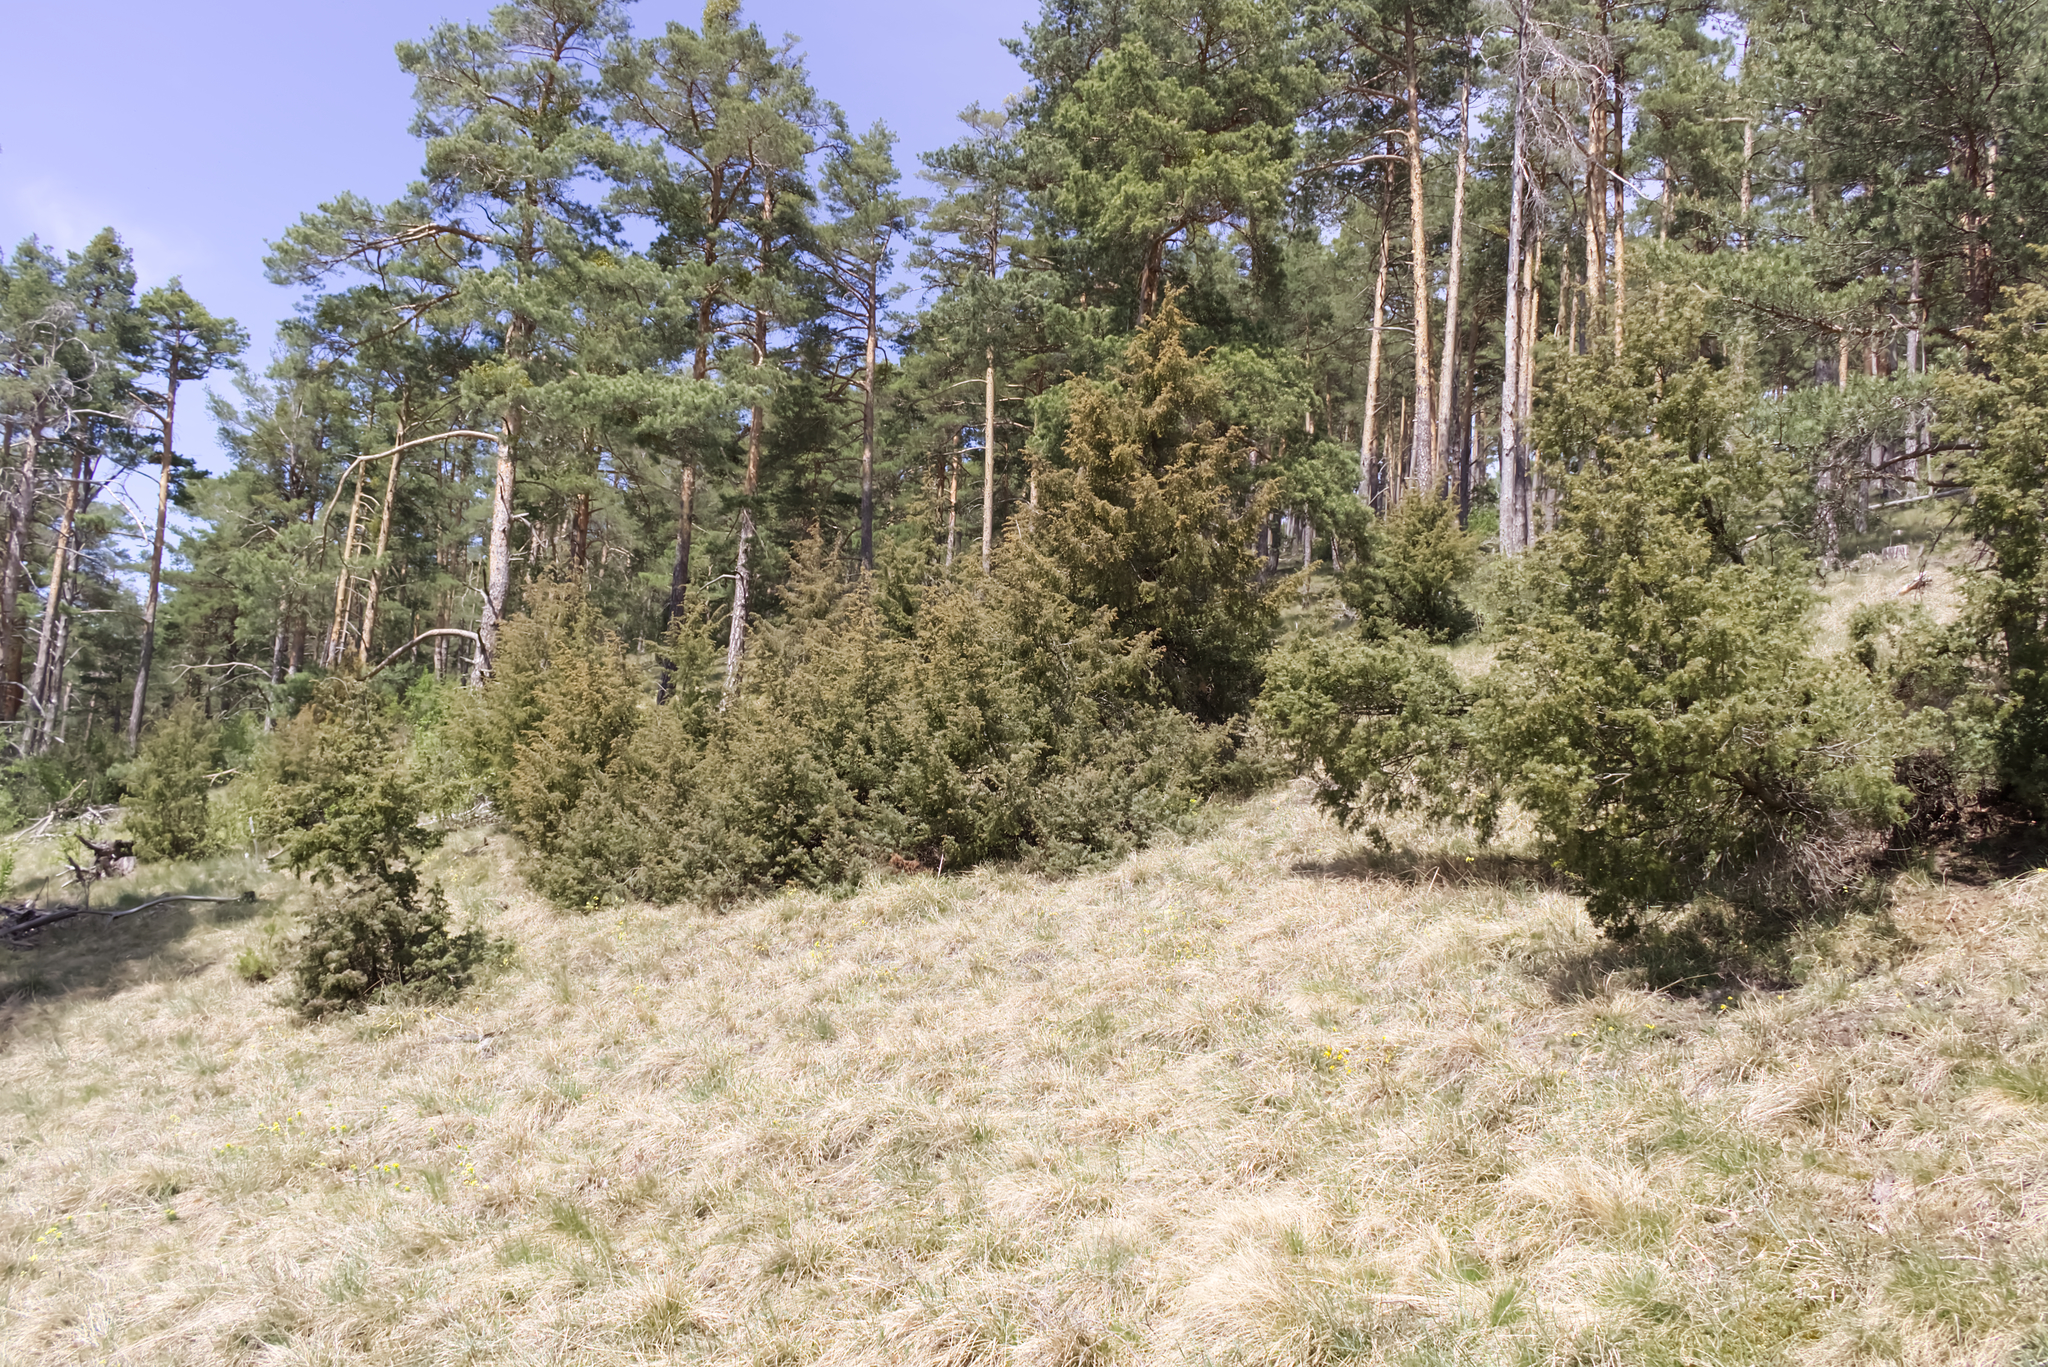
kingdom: Plantae
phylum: Tracheophyta
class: Pinopsida
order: Pinales
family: Cupressaceae
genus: Juniperus
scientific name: Juniperus communis
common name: Common juniper
